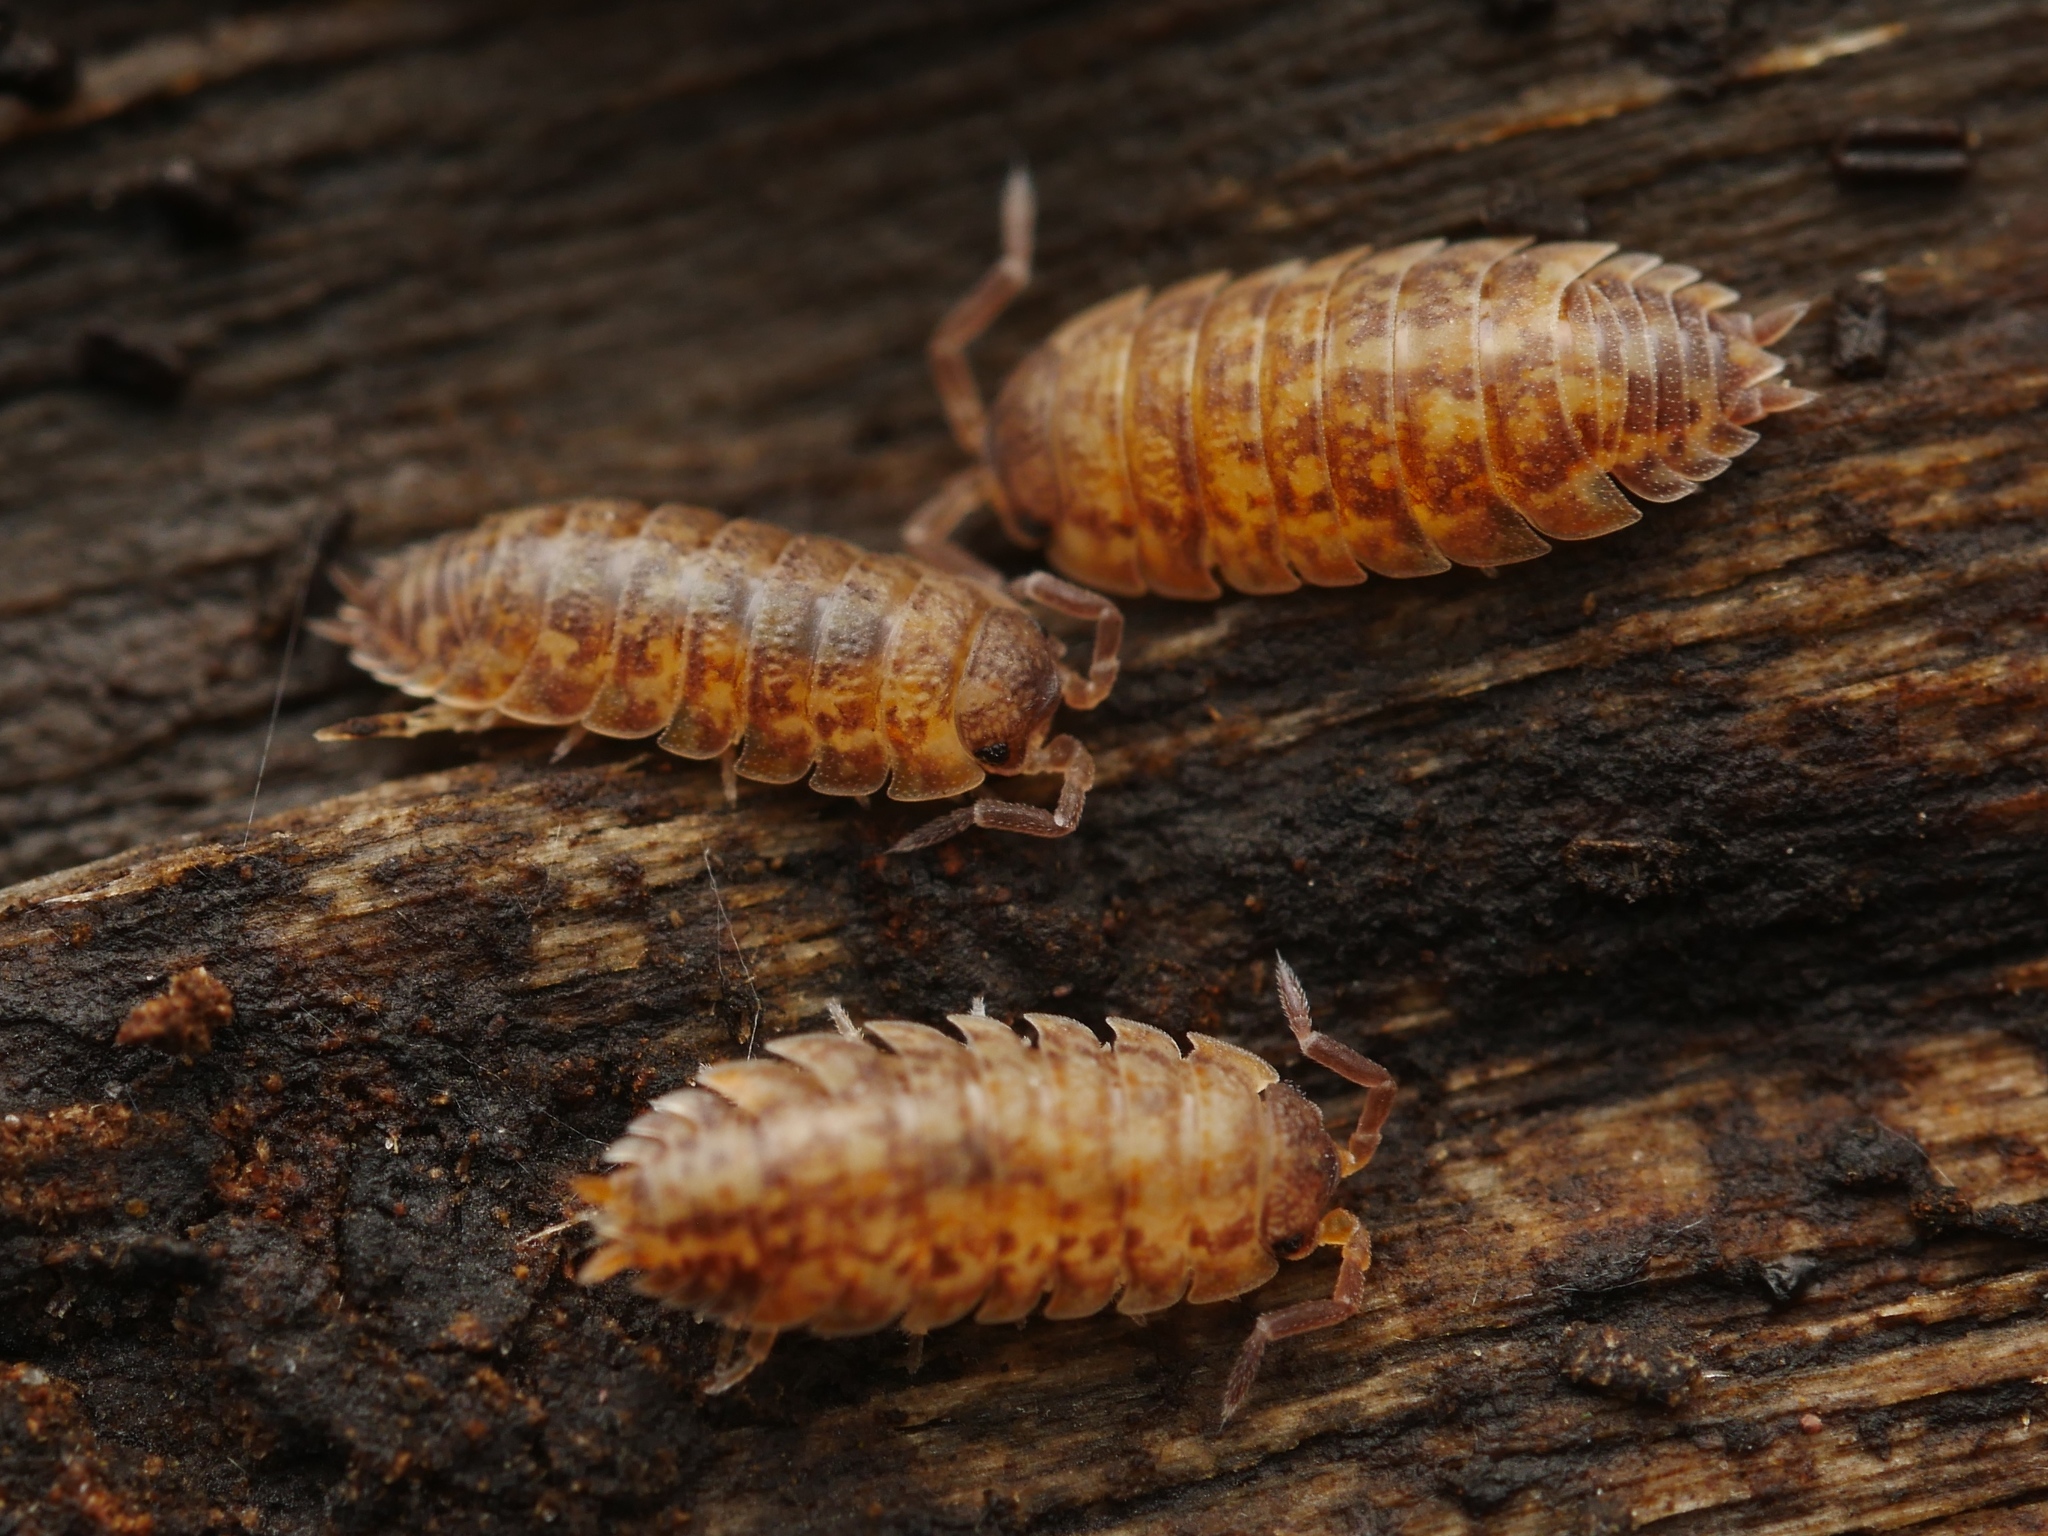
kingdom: Animalia
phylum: Arthropoda
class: Malacostraca
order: Isopoda
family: Porcellionidae
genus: Porcellio
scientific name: Porcellio scaber
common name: Common rough woodlouse
